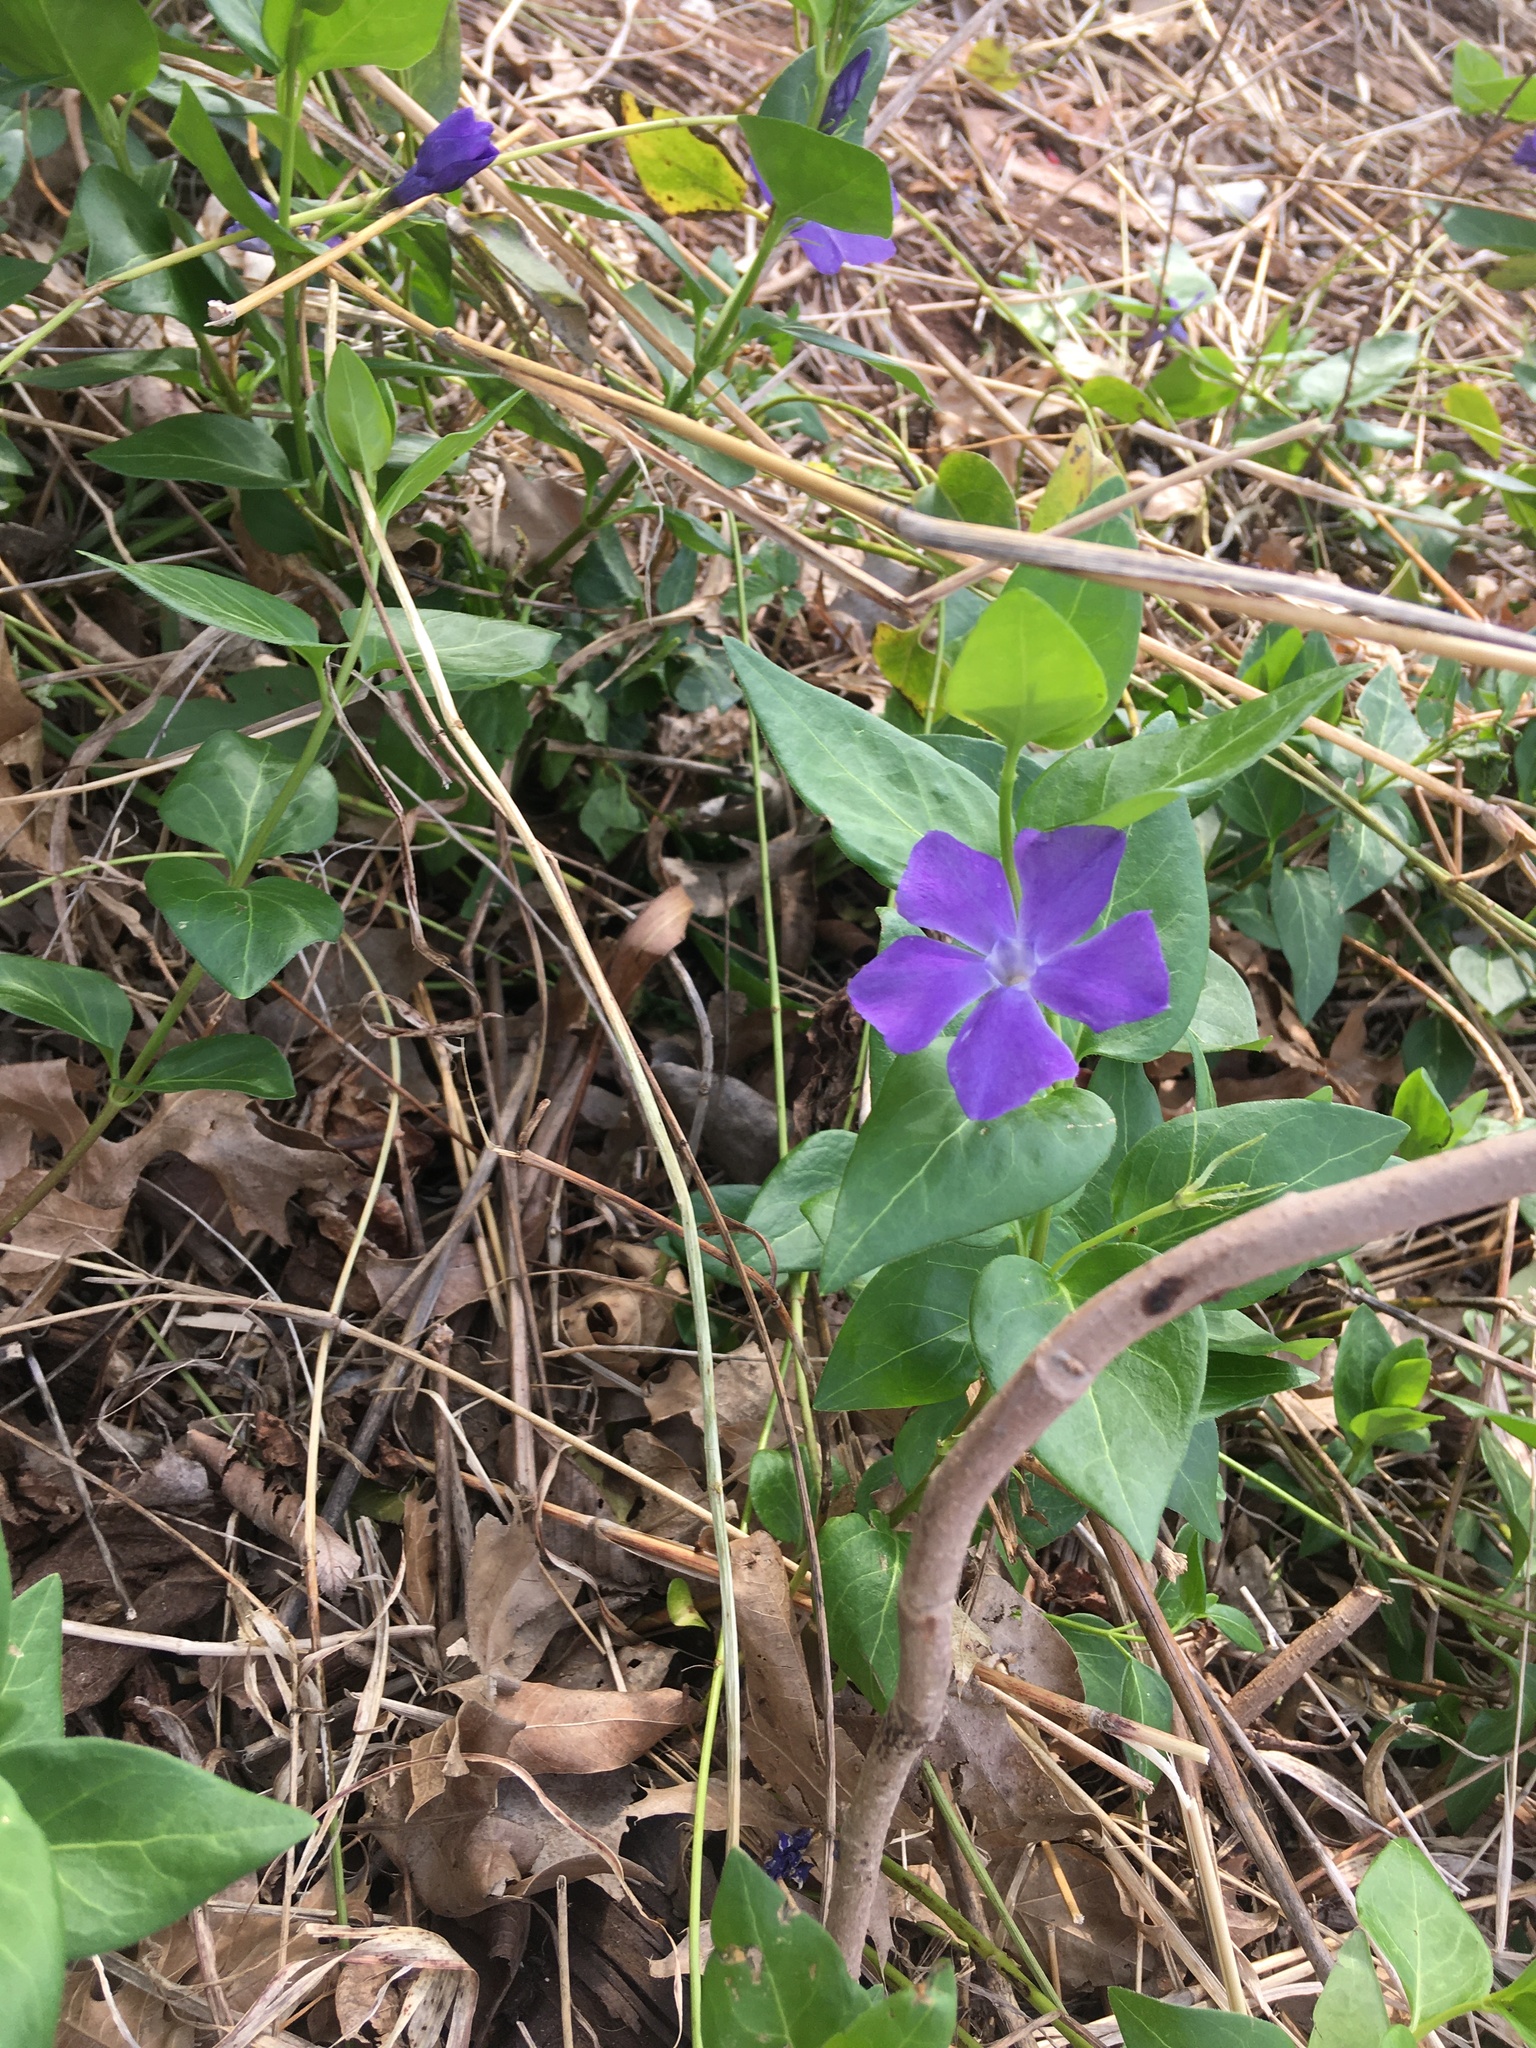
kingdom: Plantae
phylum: Tracheophyta
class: Magnoliopsida
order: Gentianales
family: Apocynaceae
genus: Vinca
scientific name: Vinca major
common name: Greater periwinkle
